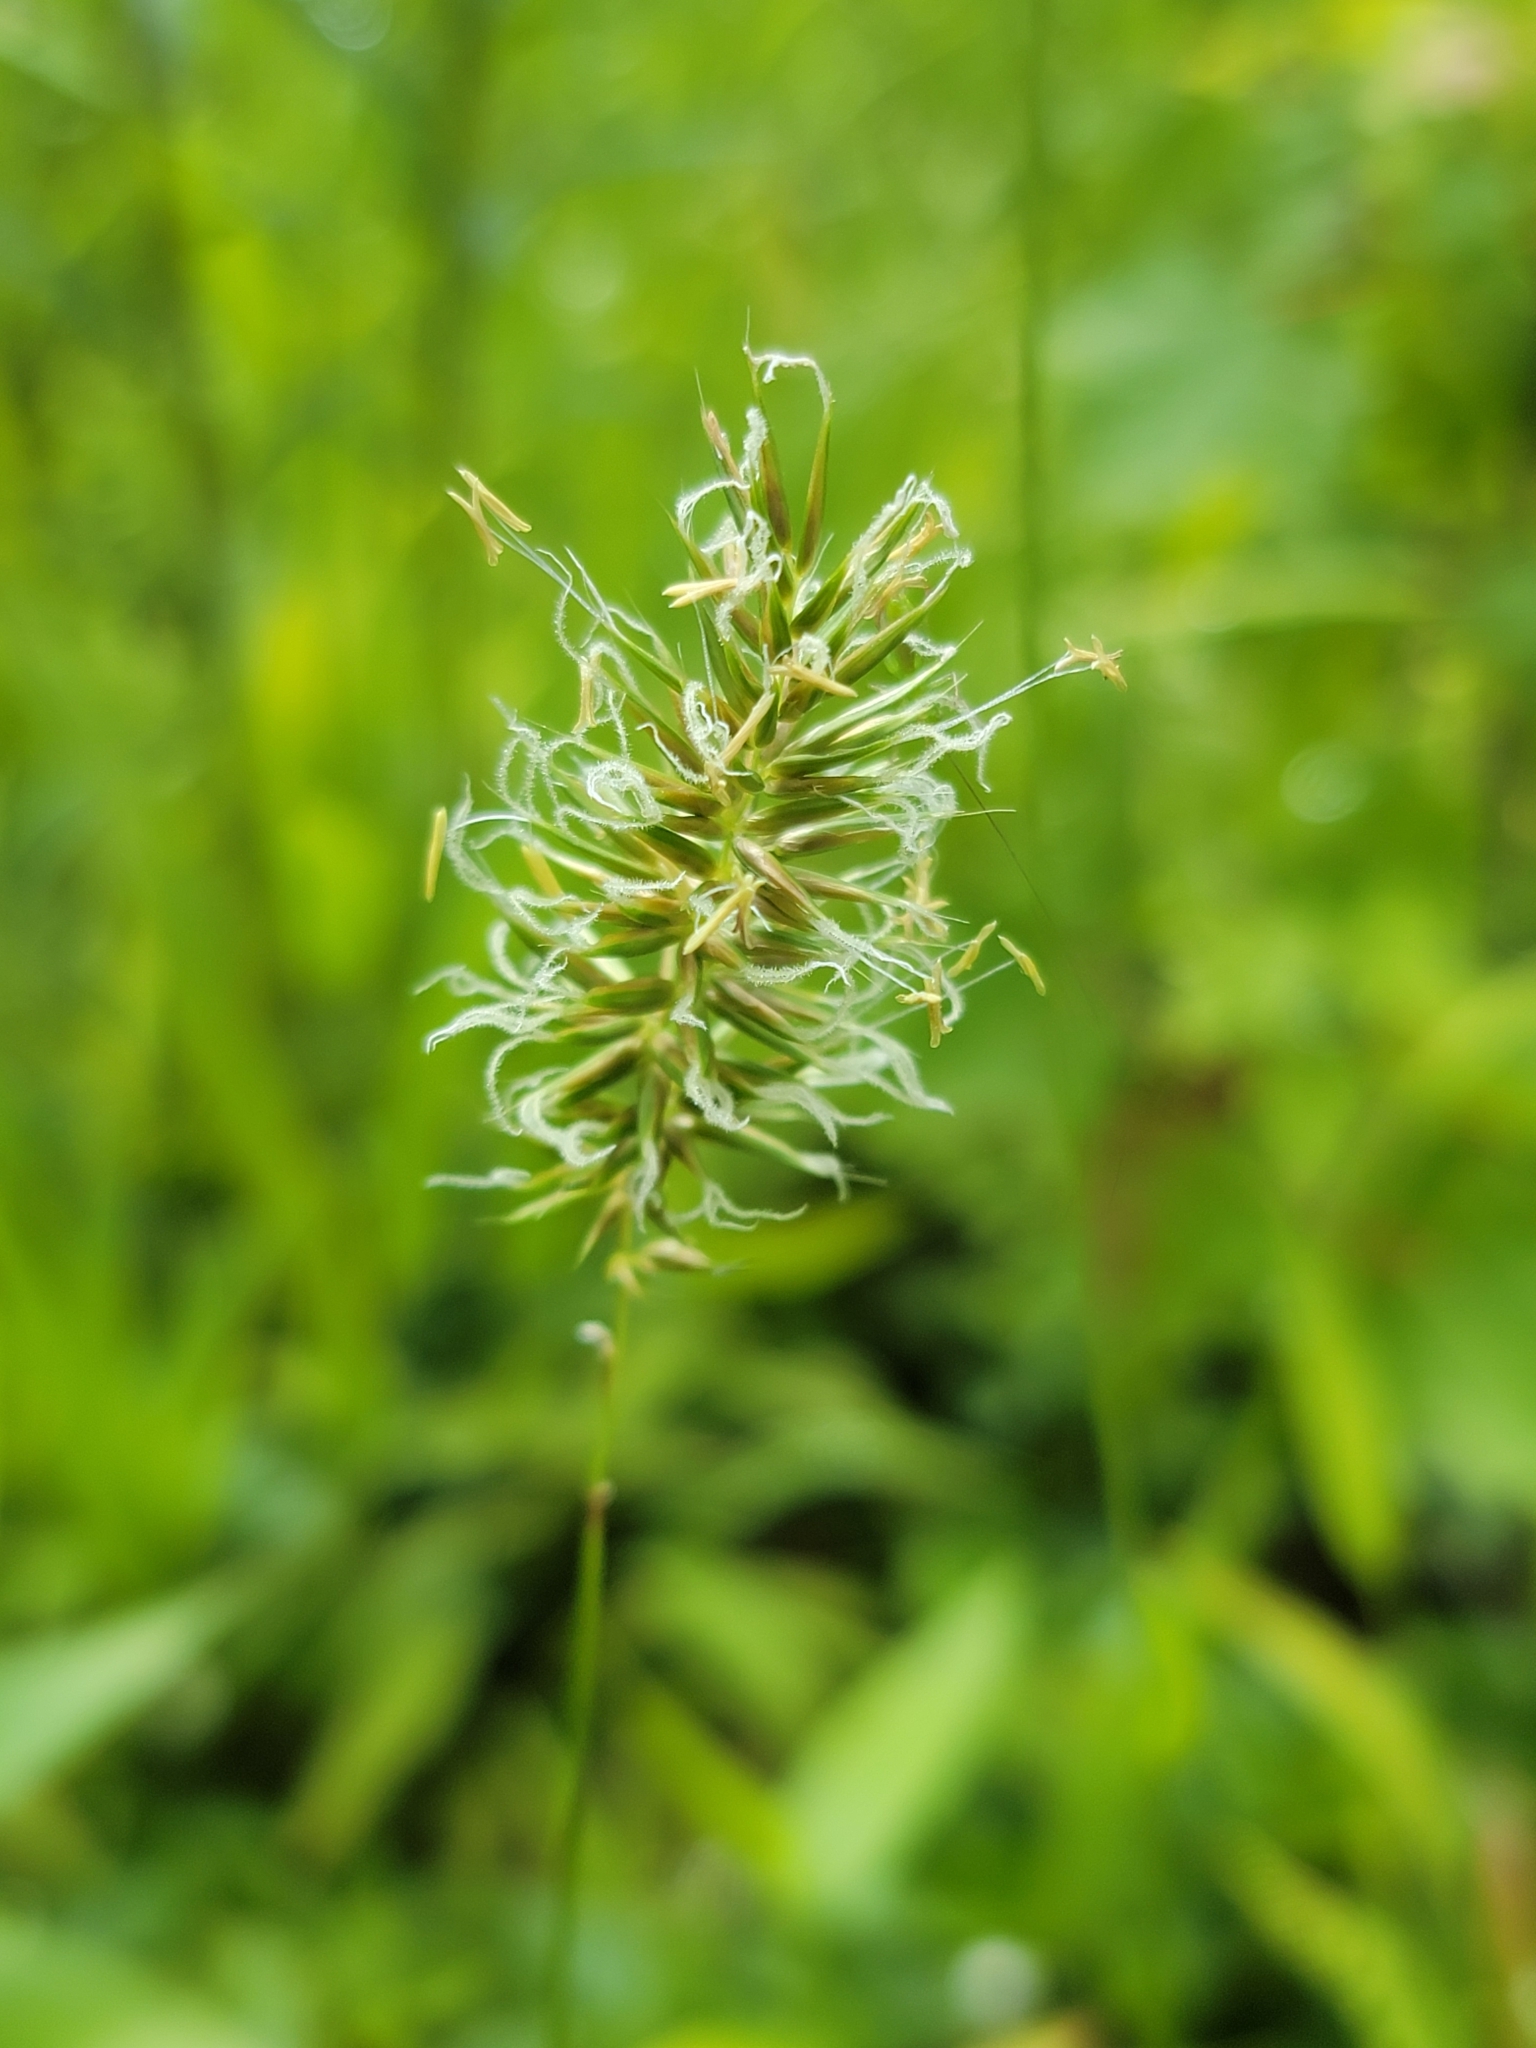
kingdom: Plantae
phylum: Tracheophyta
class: Liliopsida
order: Poales
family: Poaceae
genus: Anthoxanthum
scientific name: Anthoxanthum odoratum
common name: Sweet vernalgrass
